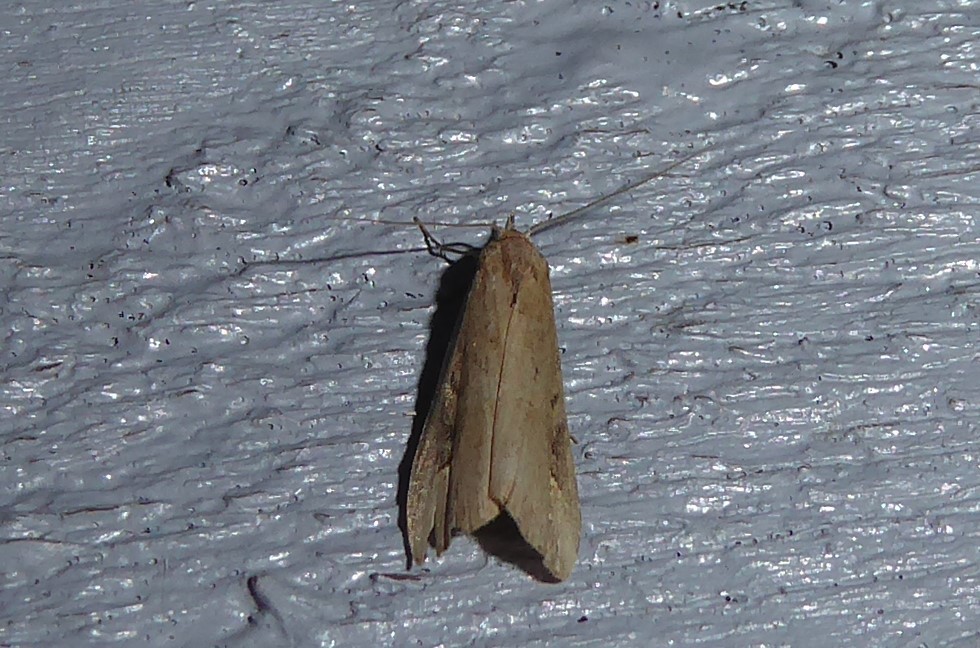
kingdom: Animalia
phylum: Arthropoda
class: Insecta
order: Lepidoptera
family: Erebidae
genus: Schrankia
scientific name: Schrankia costaestrigalis
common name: Pinion-streaked snout
